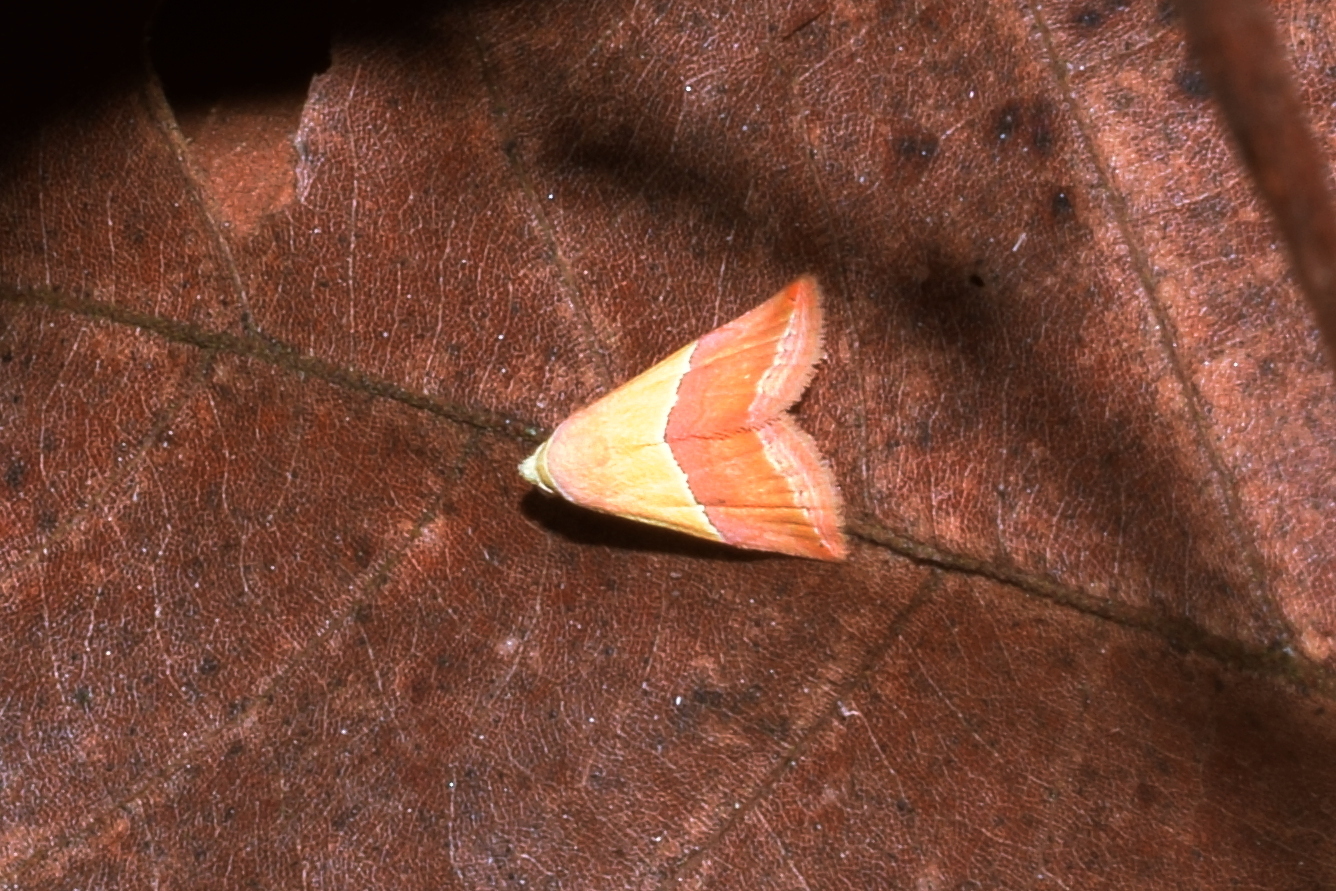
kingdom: Animalia
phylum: Arthropoda
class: Insecta
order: Lepidoptera
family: Noctuidae
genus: Eublemma
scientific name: Eublemma accedens
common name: Moth
